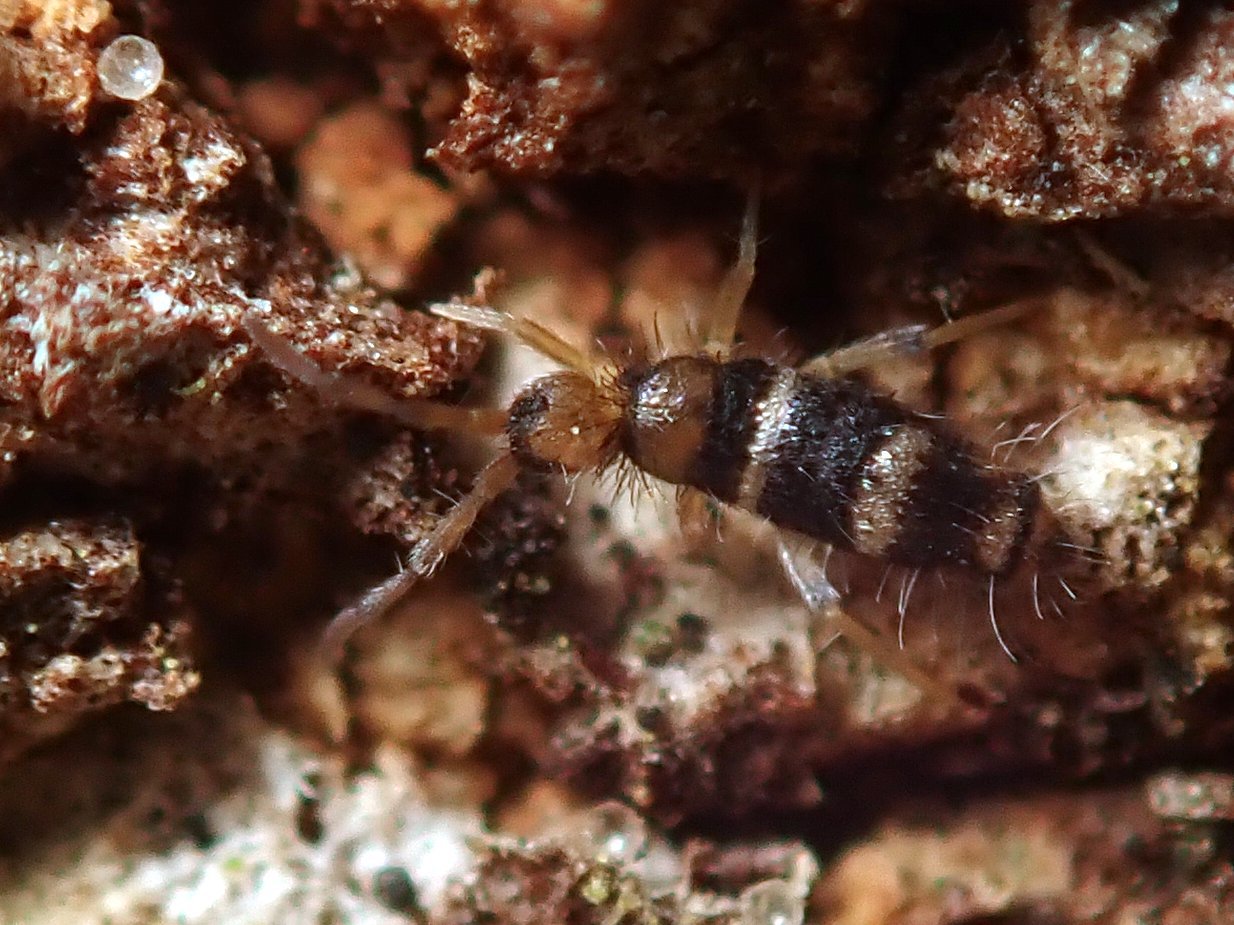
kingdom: Animalia
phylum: Arthropoda
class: Collembola
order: Entomobryomorpha
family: Entomobryidae
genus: Willowsia
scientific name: Willowsia platani
